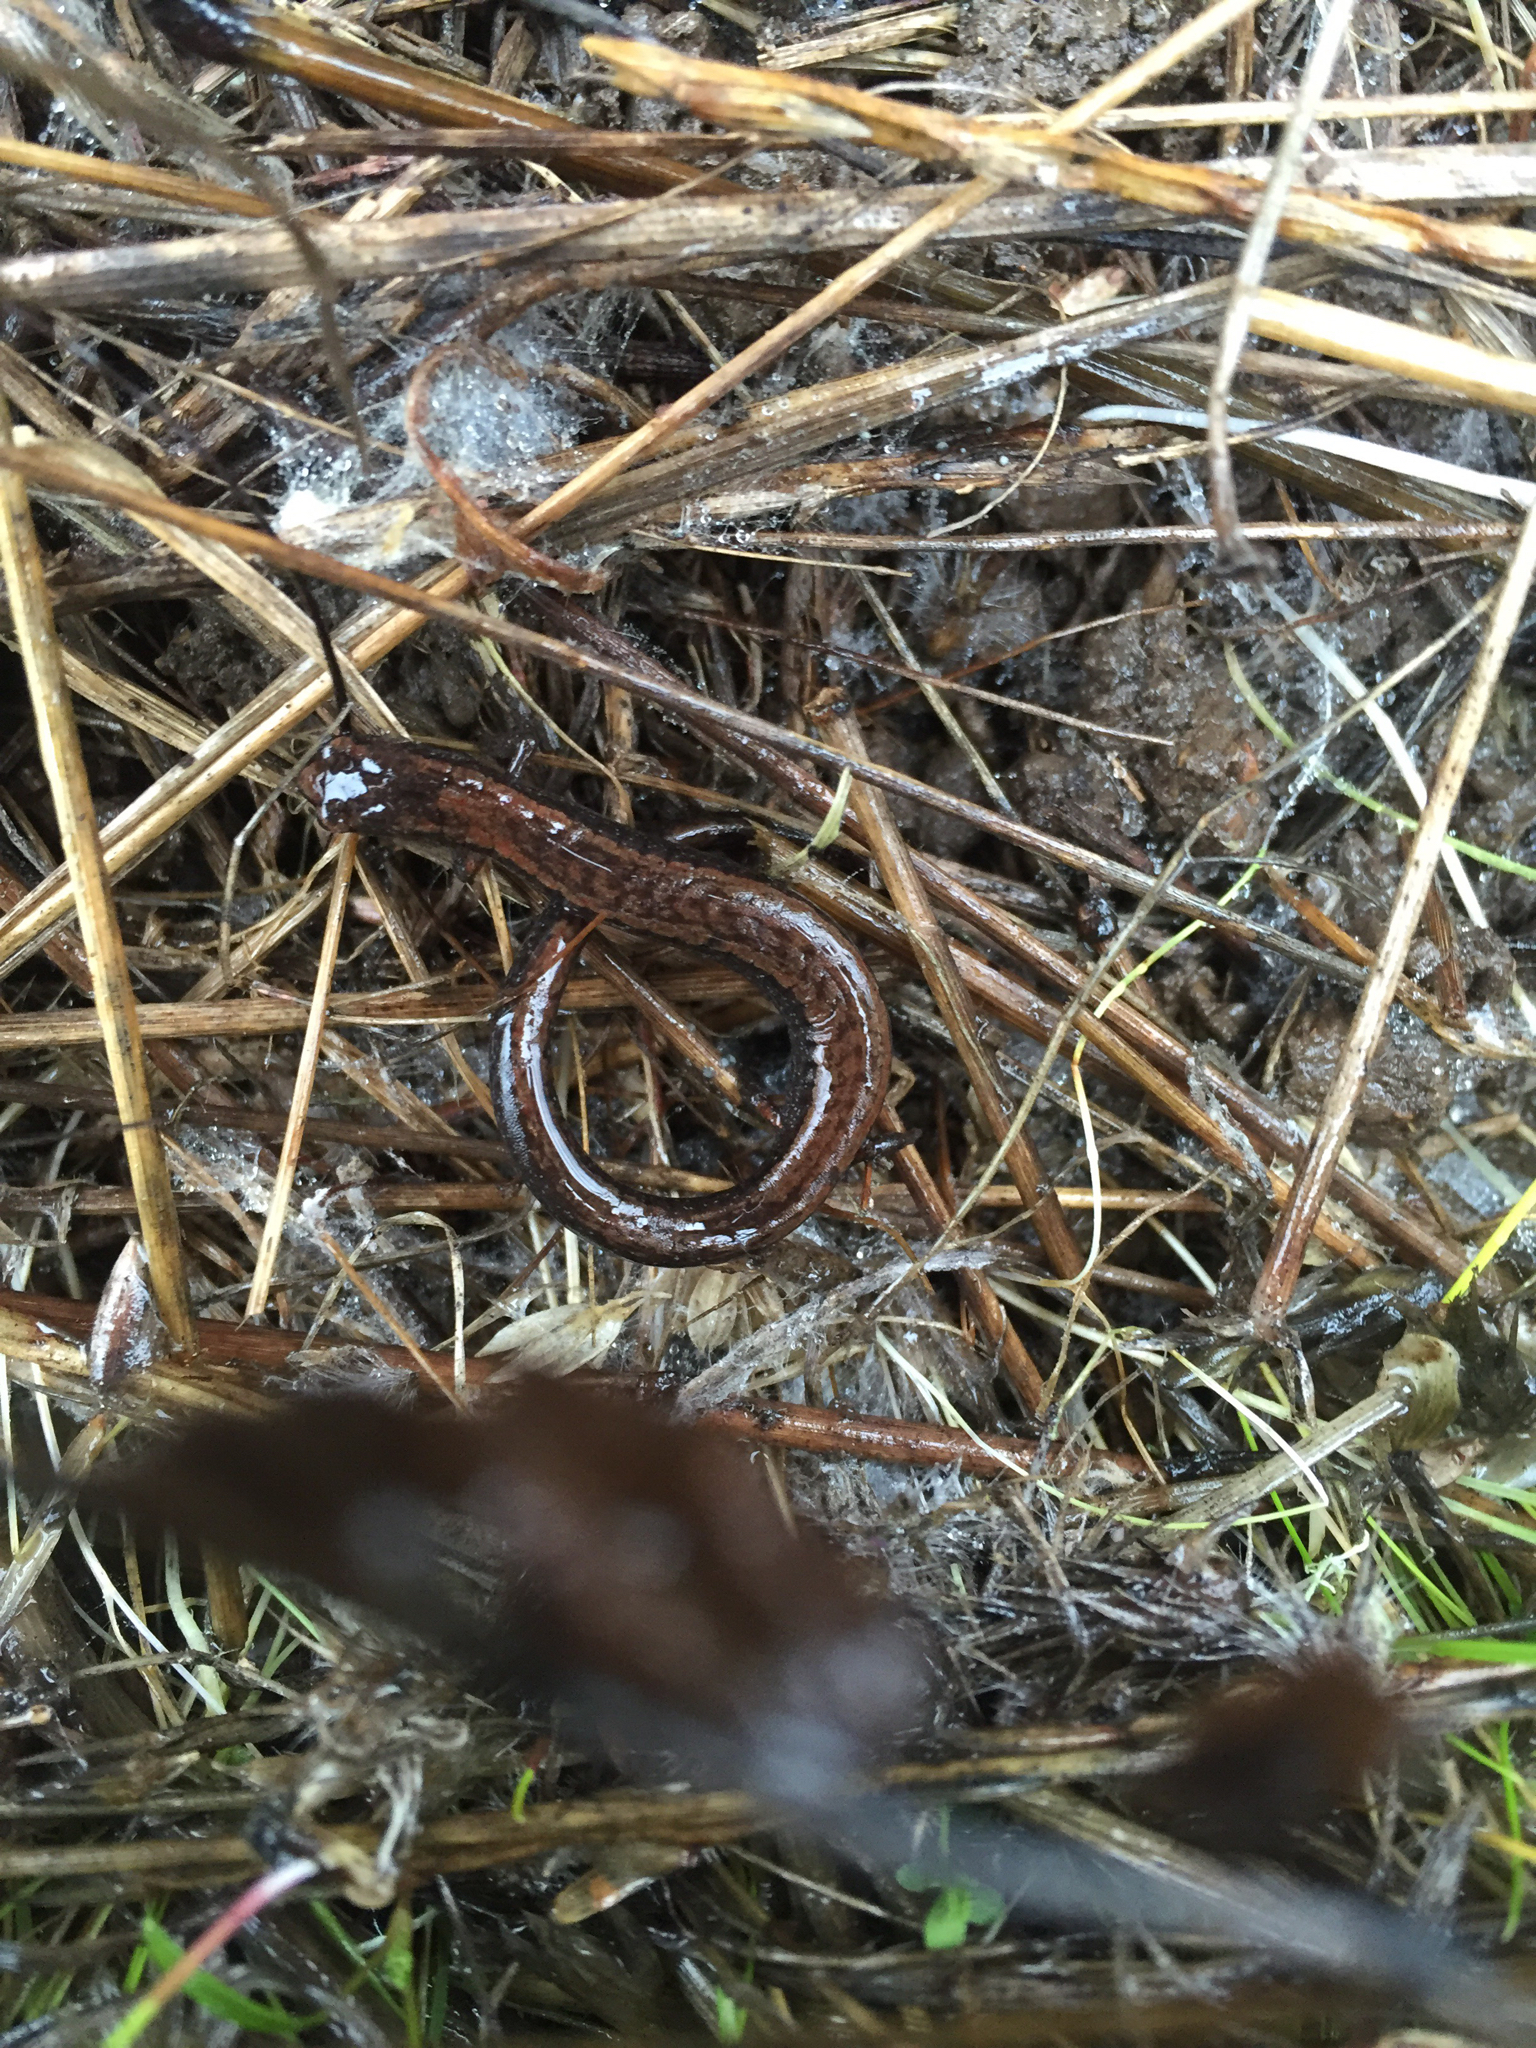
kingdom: Animalia
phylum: Chordata
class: Amphibia
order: Caudata
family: Plethodontidae
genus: Batrachoseps
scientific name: Batrachoseps attenuatus
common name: California slender salamander
